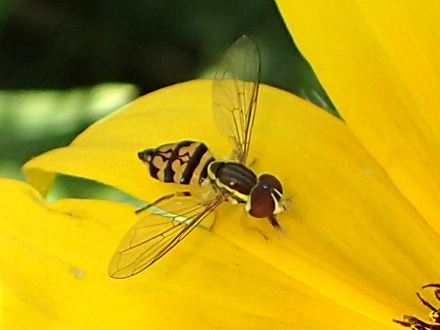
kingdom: Animalia
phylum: Arthropoda
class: Insecta
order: Diptera
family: Syrphidae
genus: Toxomerus
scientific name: Toxomerus geminatus
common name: Eastern calligrapher
